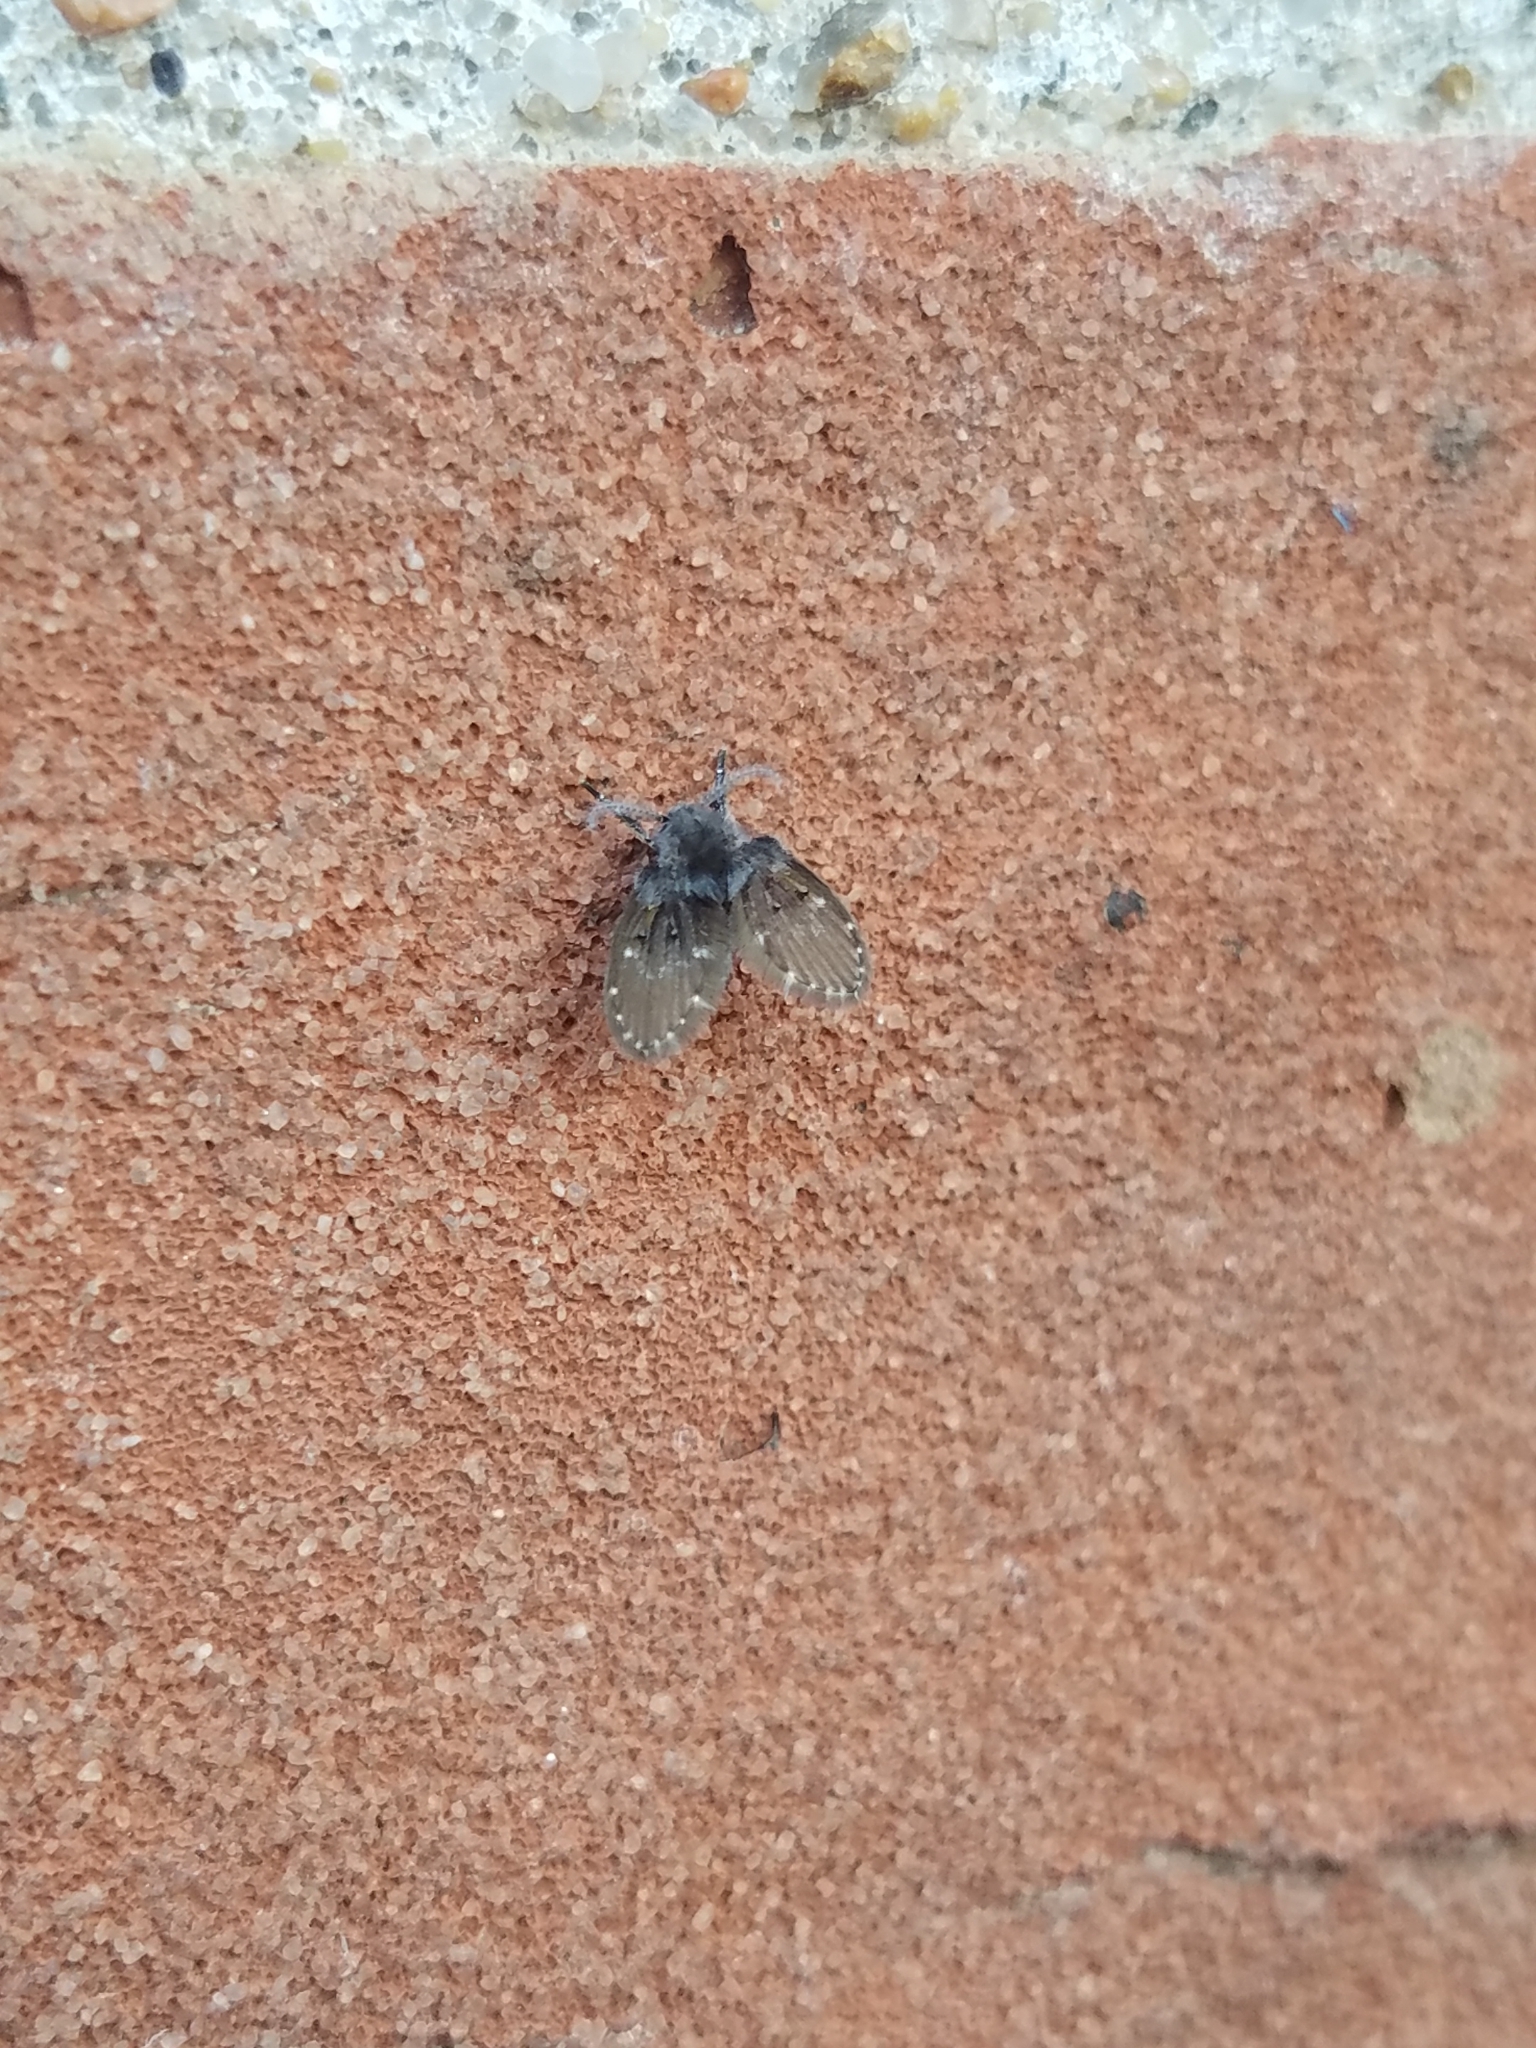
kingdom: Animalia
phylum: Arthropoda
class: Insecta
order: Diptera
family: Psychodidae
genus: Clogmia
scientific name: Clogmia albipunctatus
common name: White-spotted moth fly
